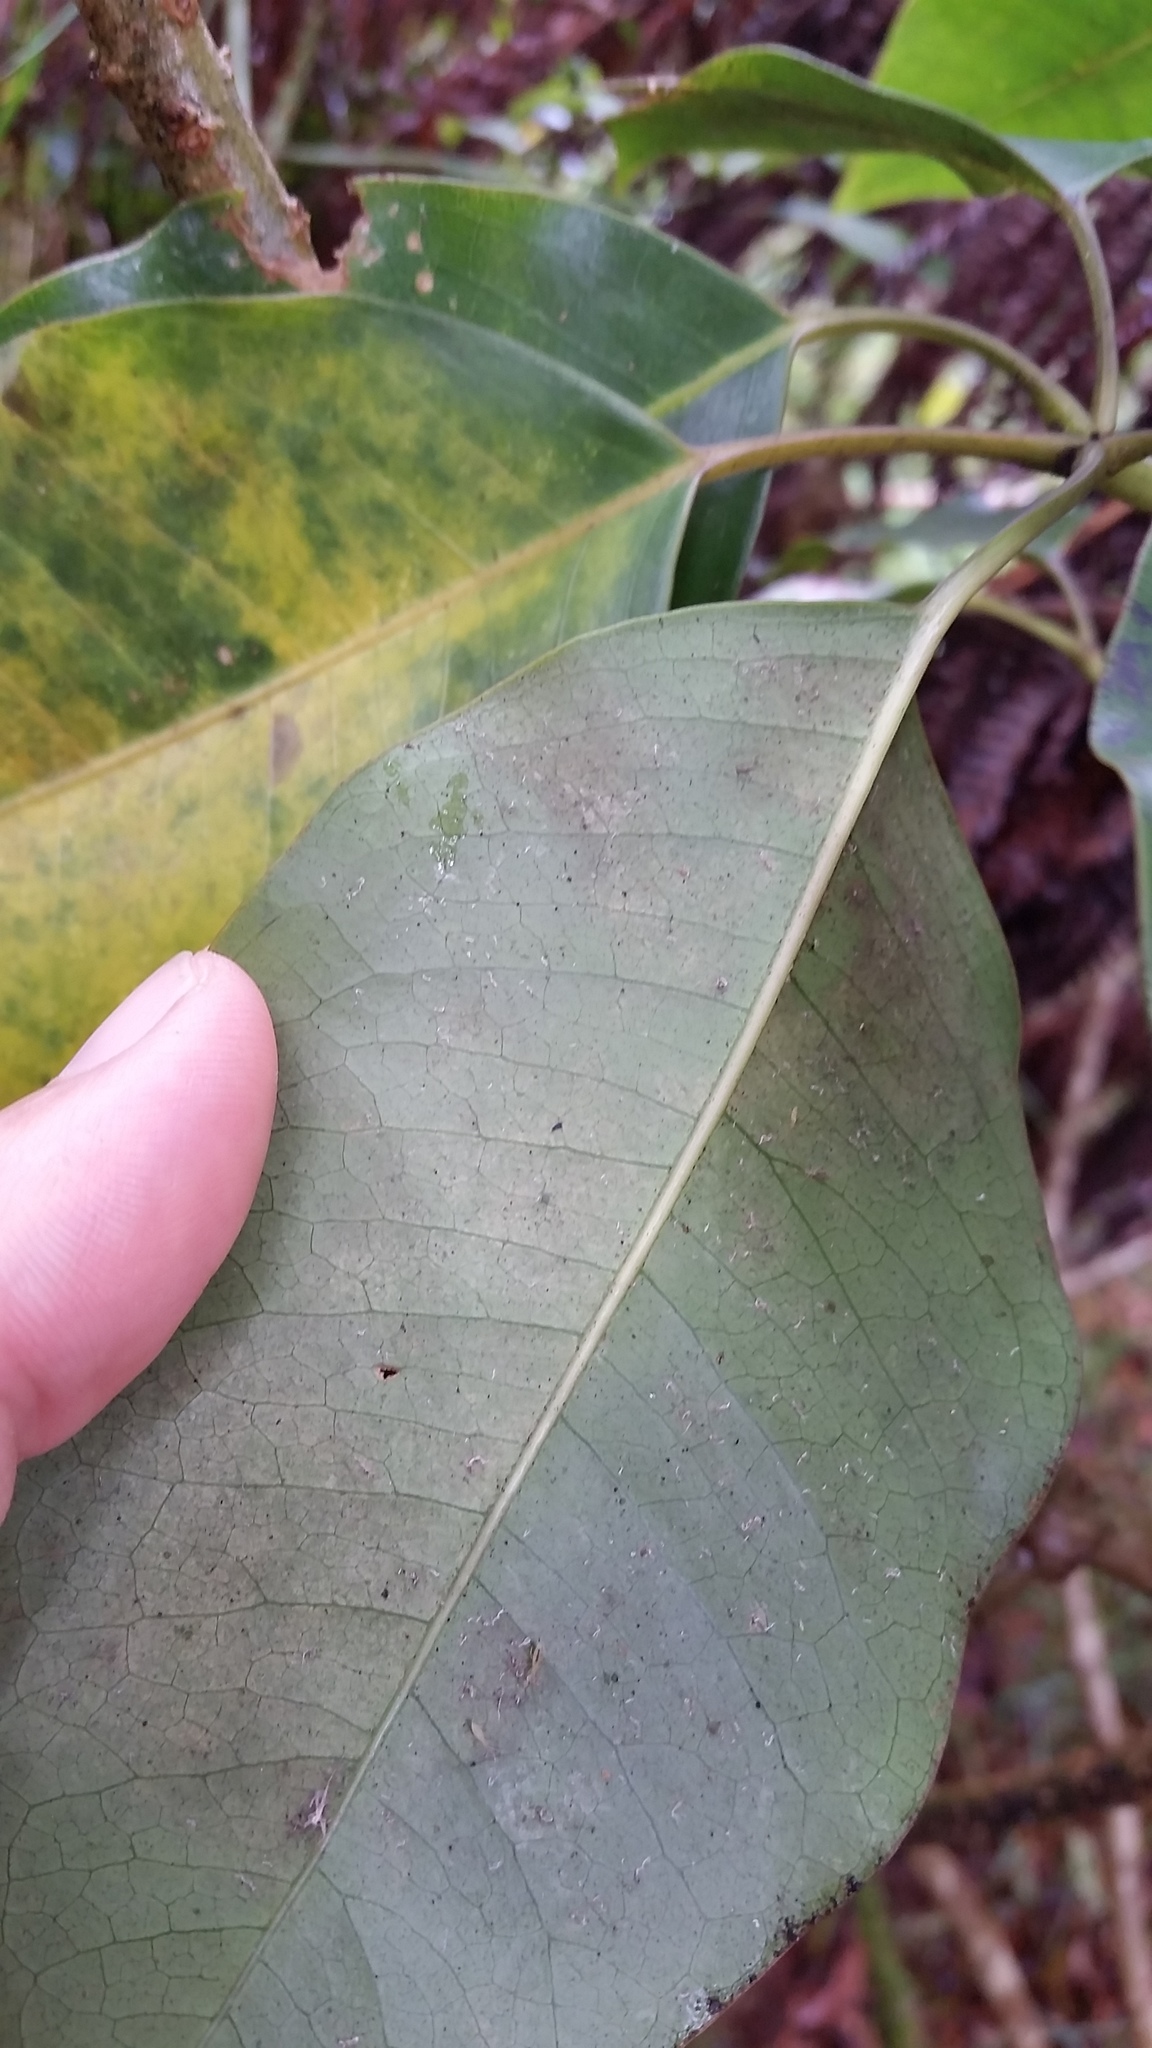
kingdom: Plantae
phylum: Tracheophyta
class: Magnoliopsida
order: Apiales
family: Araliaceae
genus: Cheirodendron
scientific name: Cheirodendron trigynum
